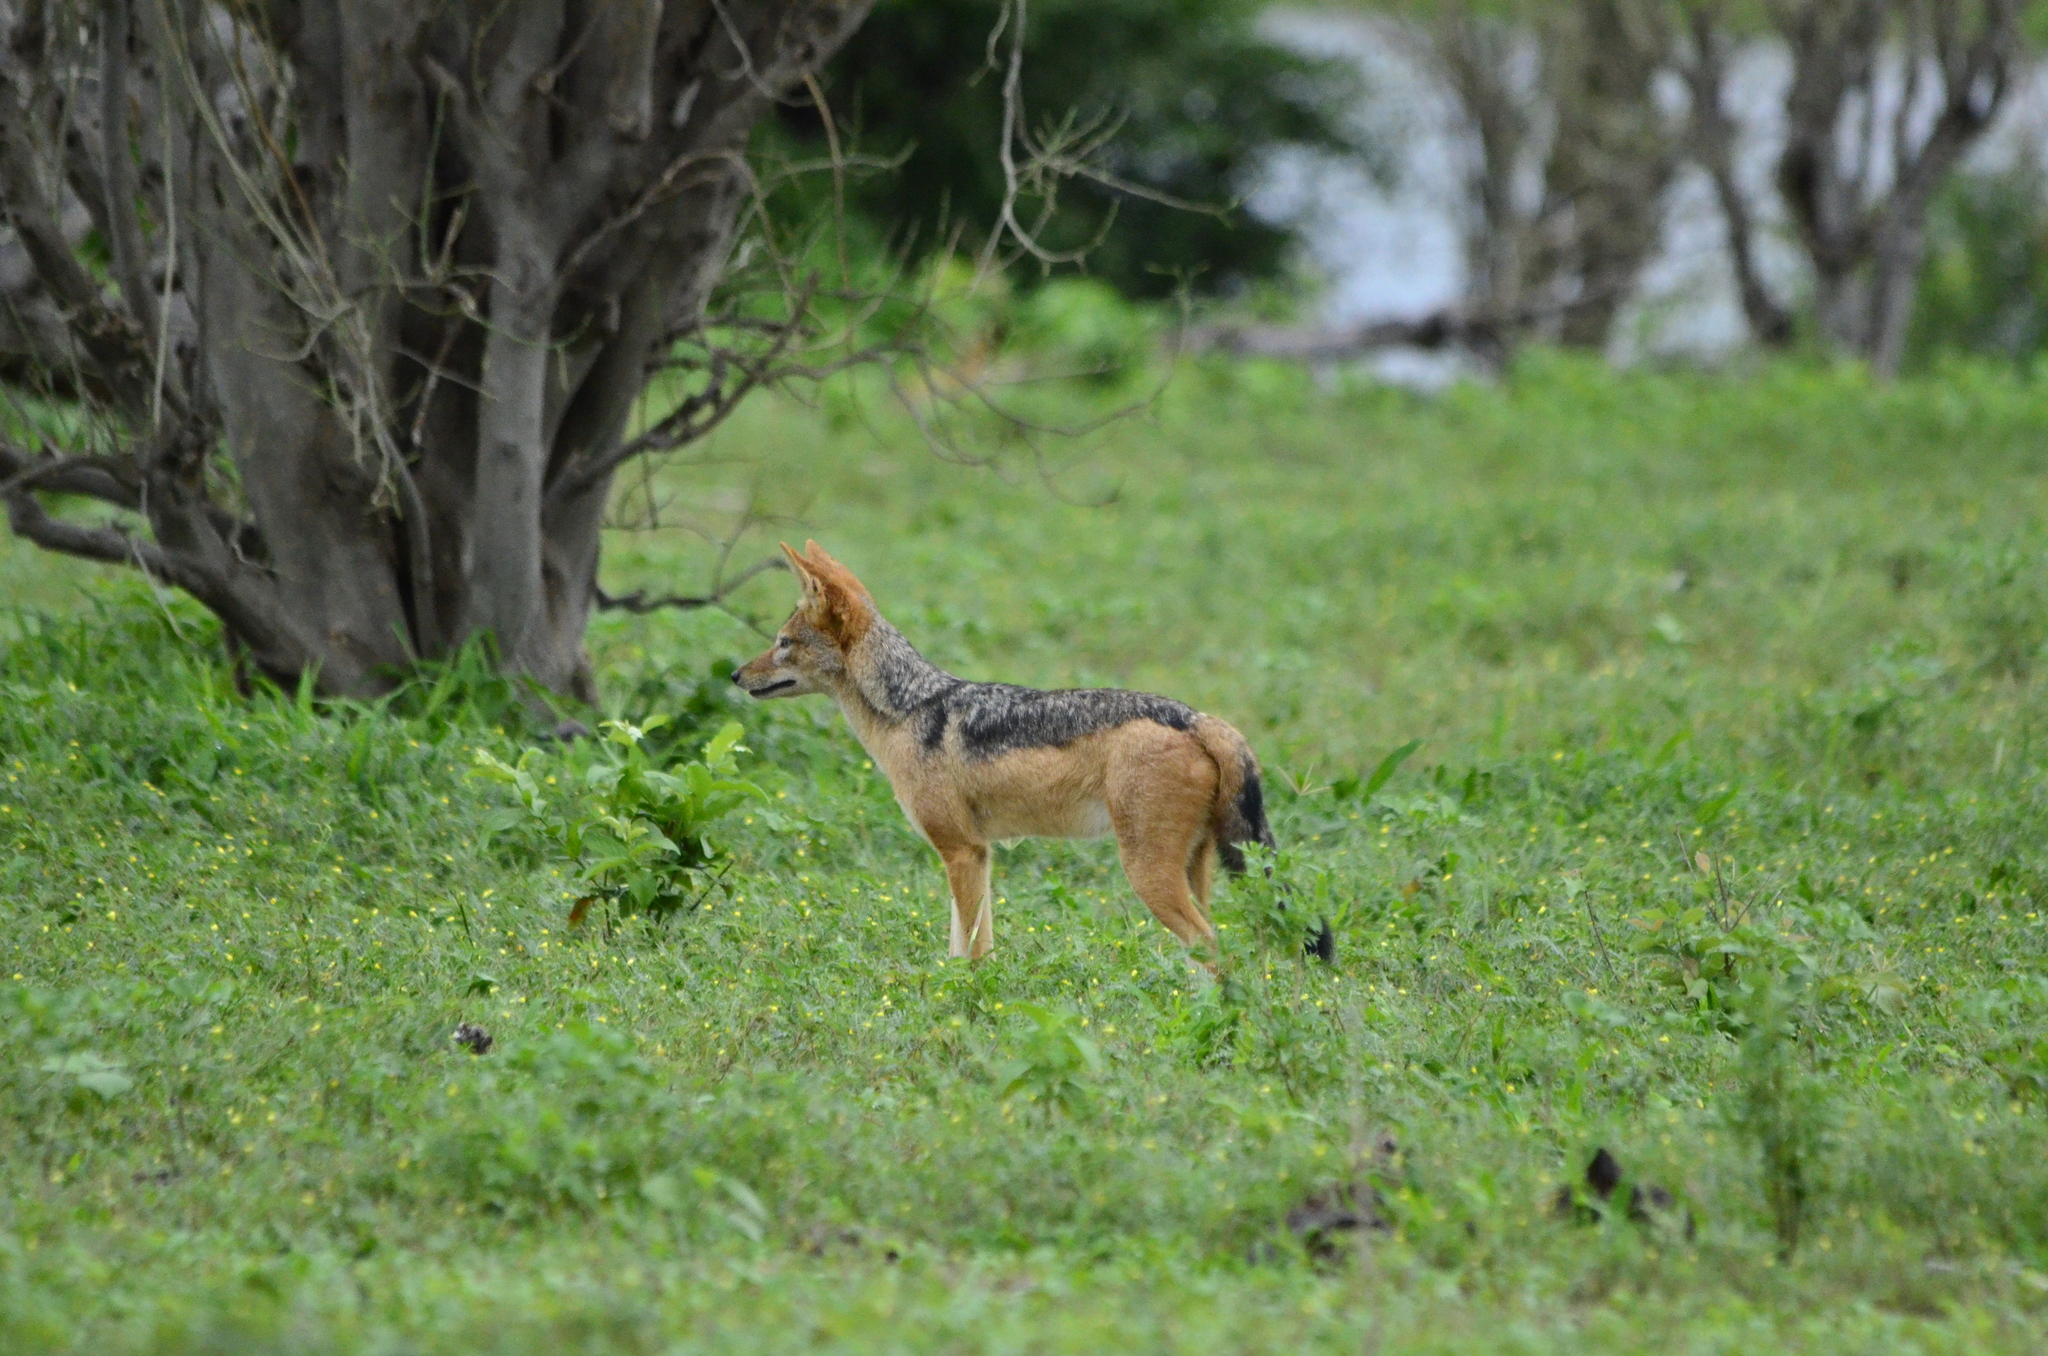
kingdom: Animalia
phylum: Chordata
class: Mammalia
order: Carnivora
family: Canidae
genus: Lupulella
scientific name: Lupulella
